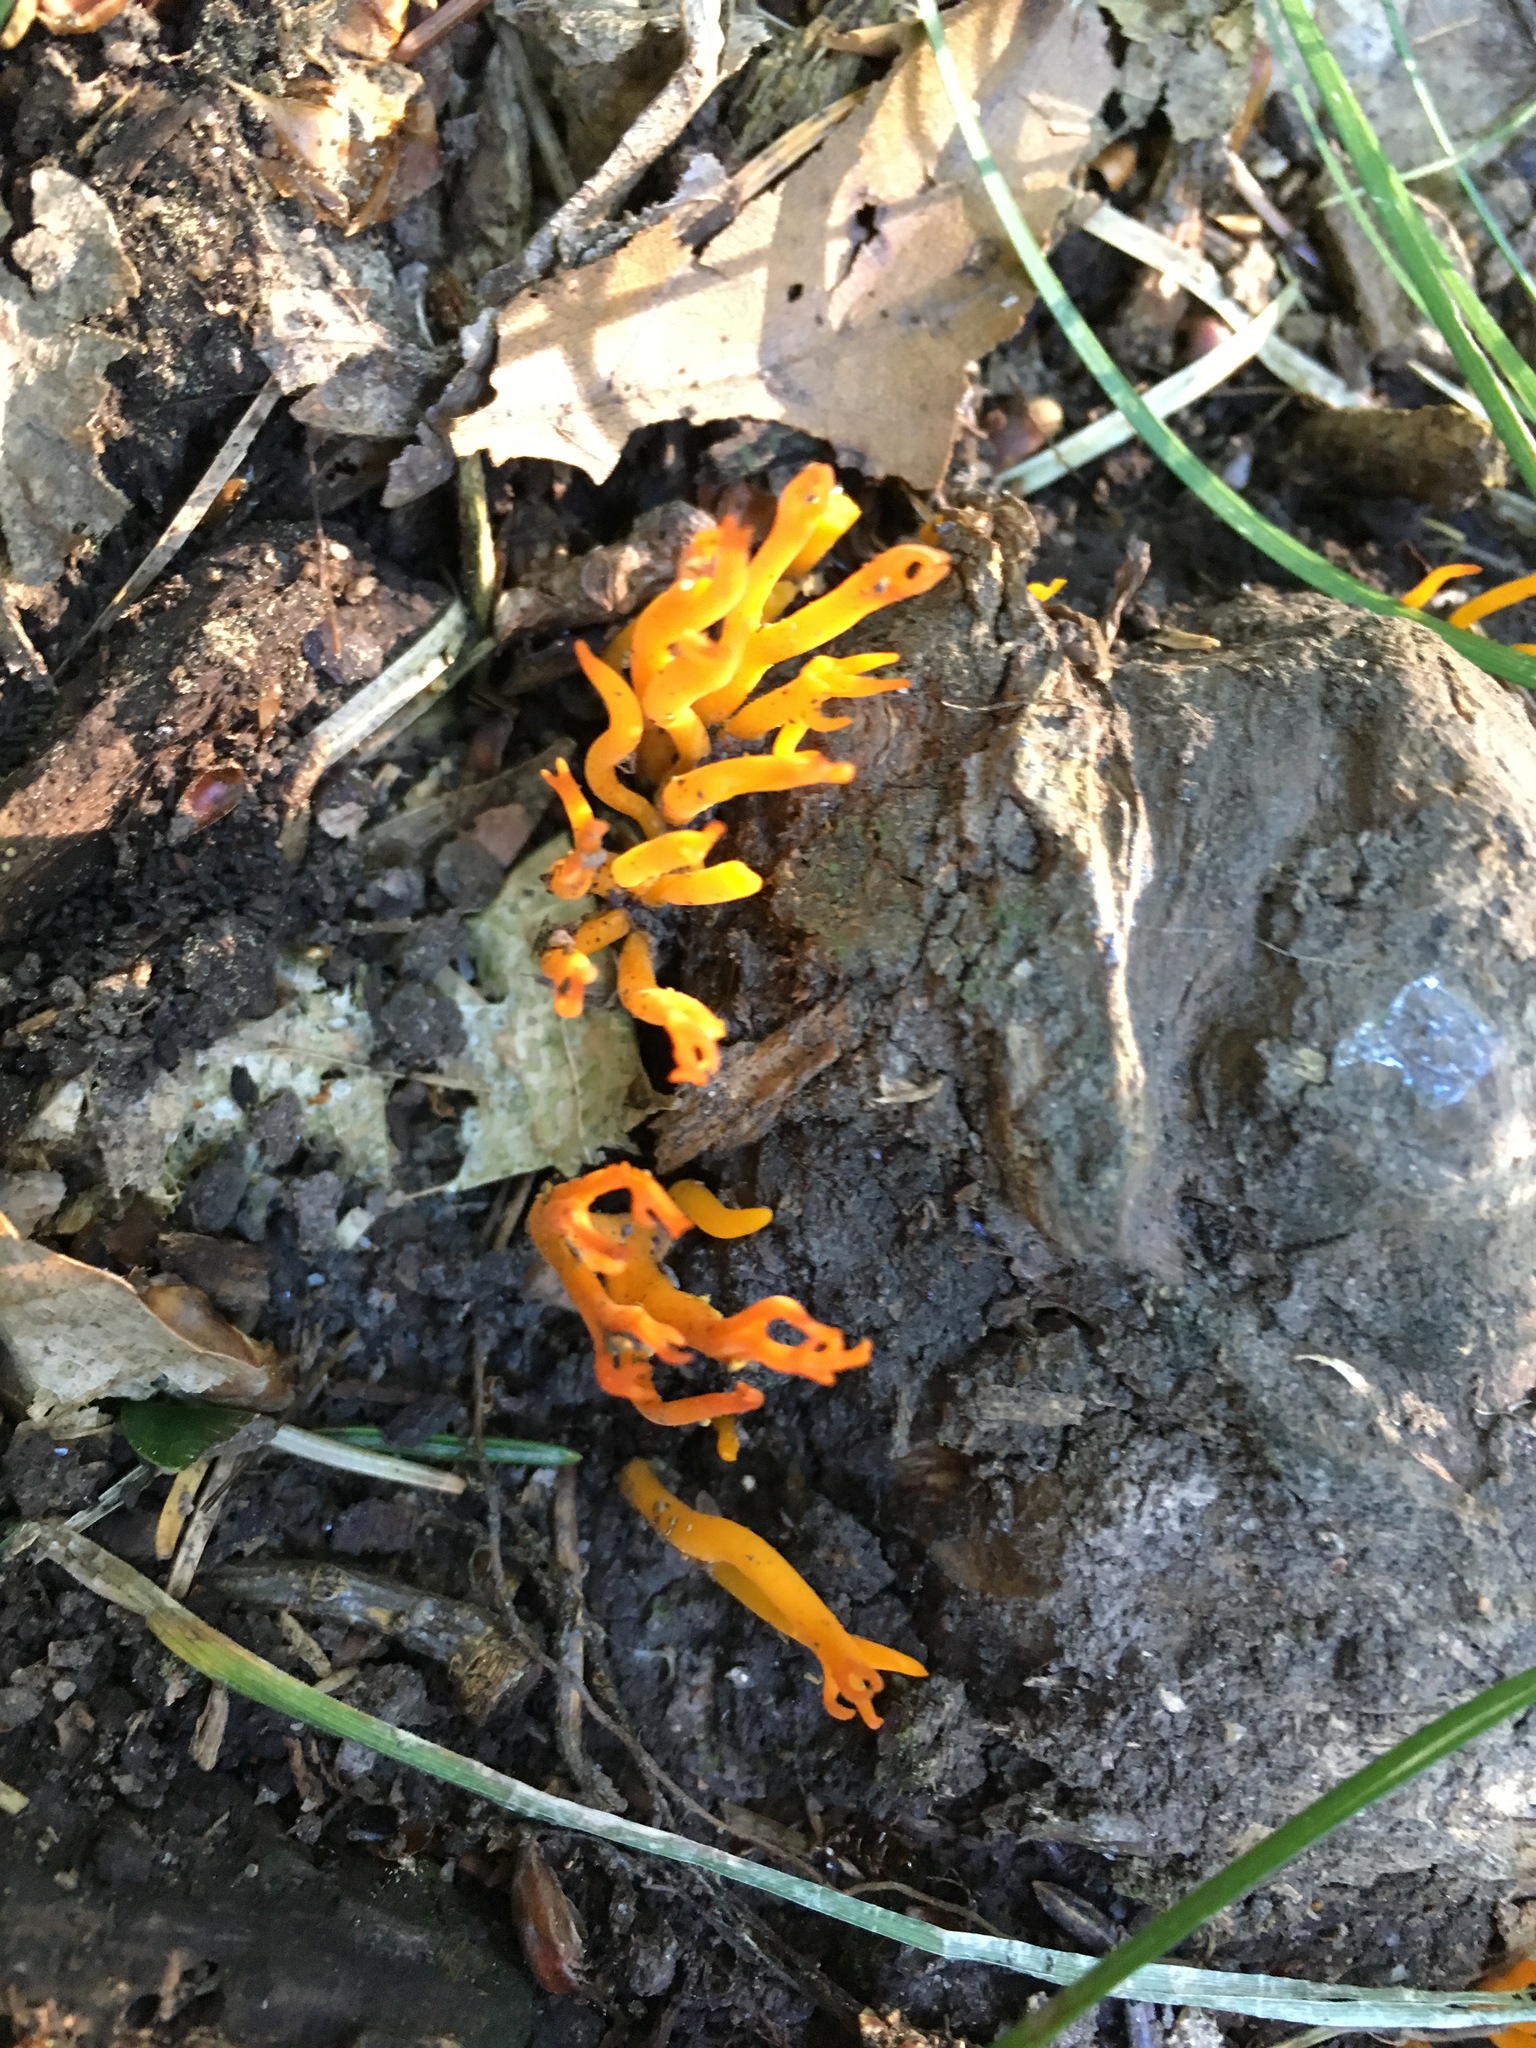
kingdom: Fungi
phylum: Basidiomycota
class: Dacrymycetes
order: Dacrymycetales
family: Dacrymycetaceae
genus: Calocera
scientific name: Calocera viscosa
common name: Yellow stagshorn
